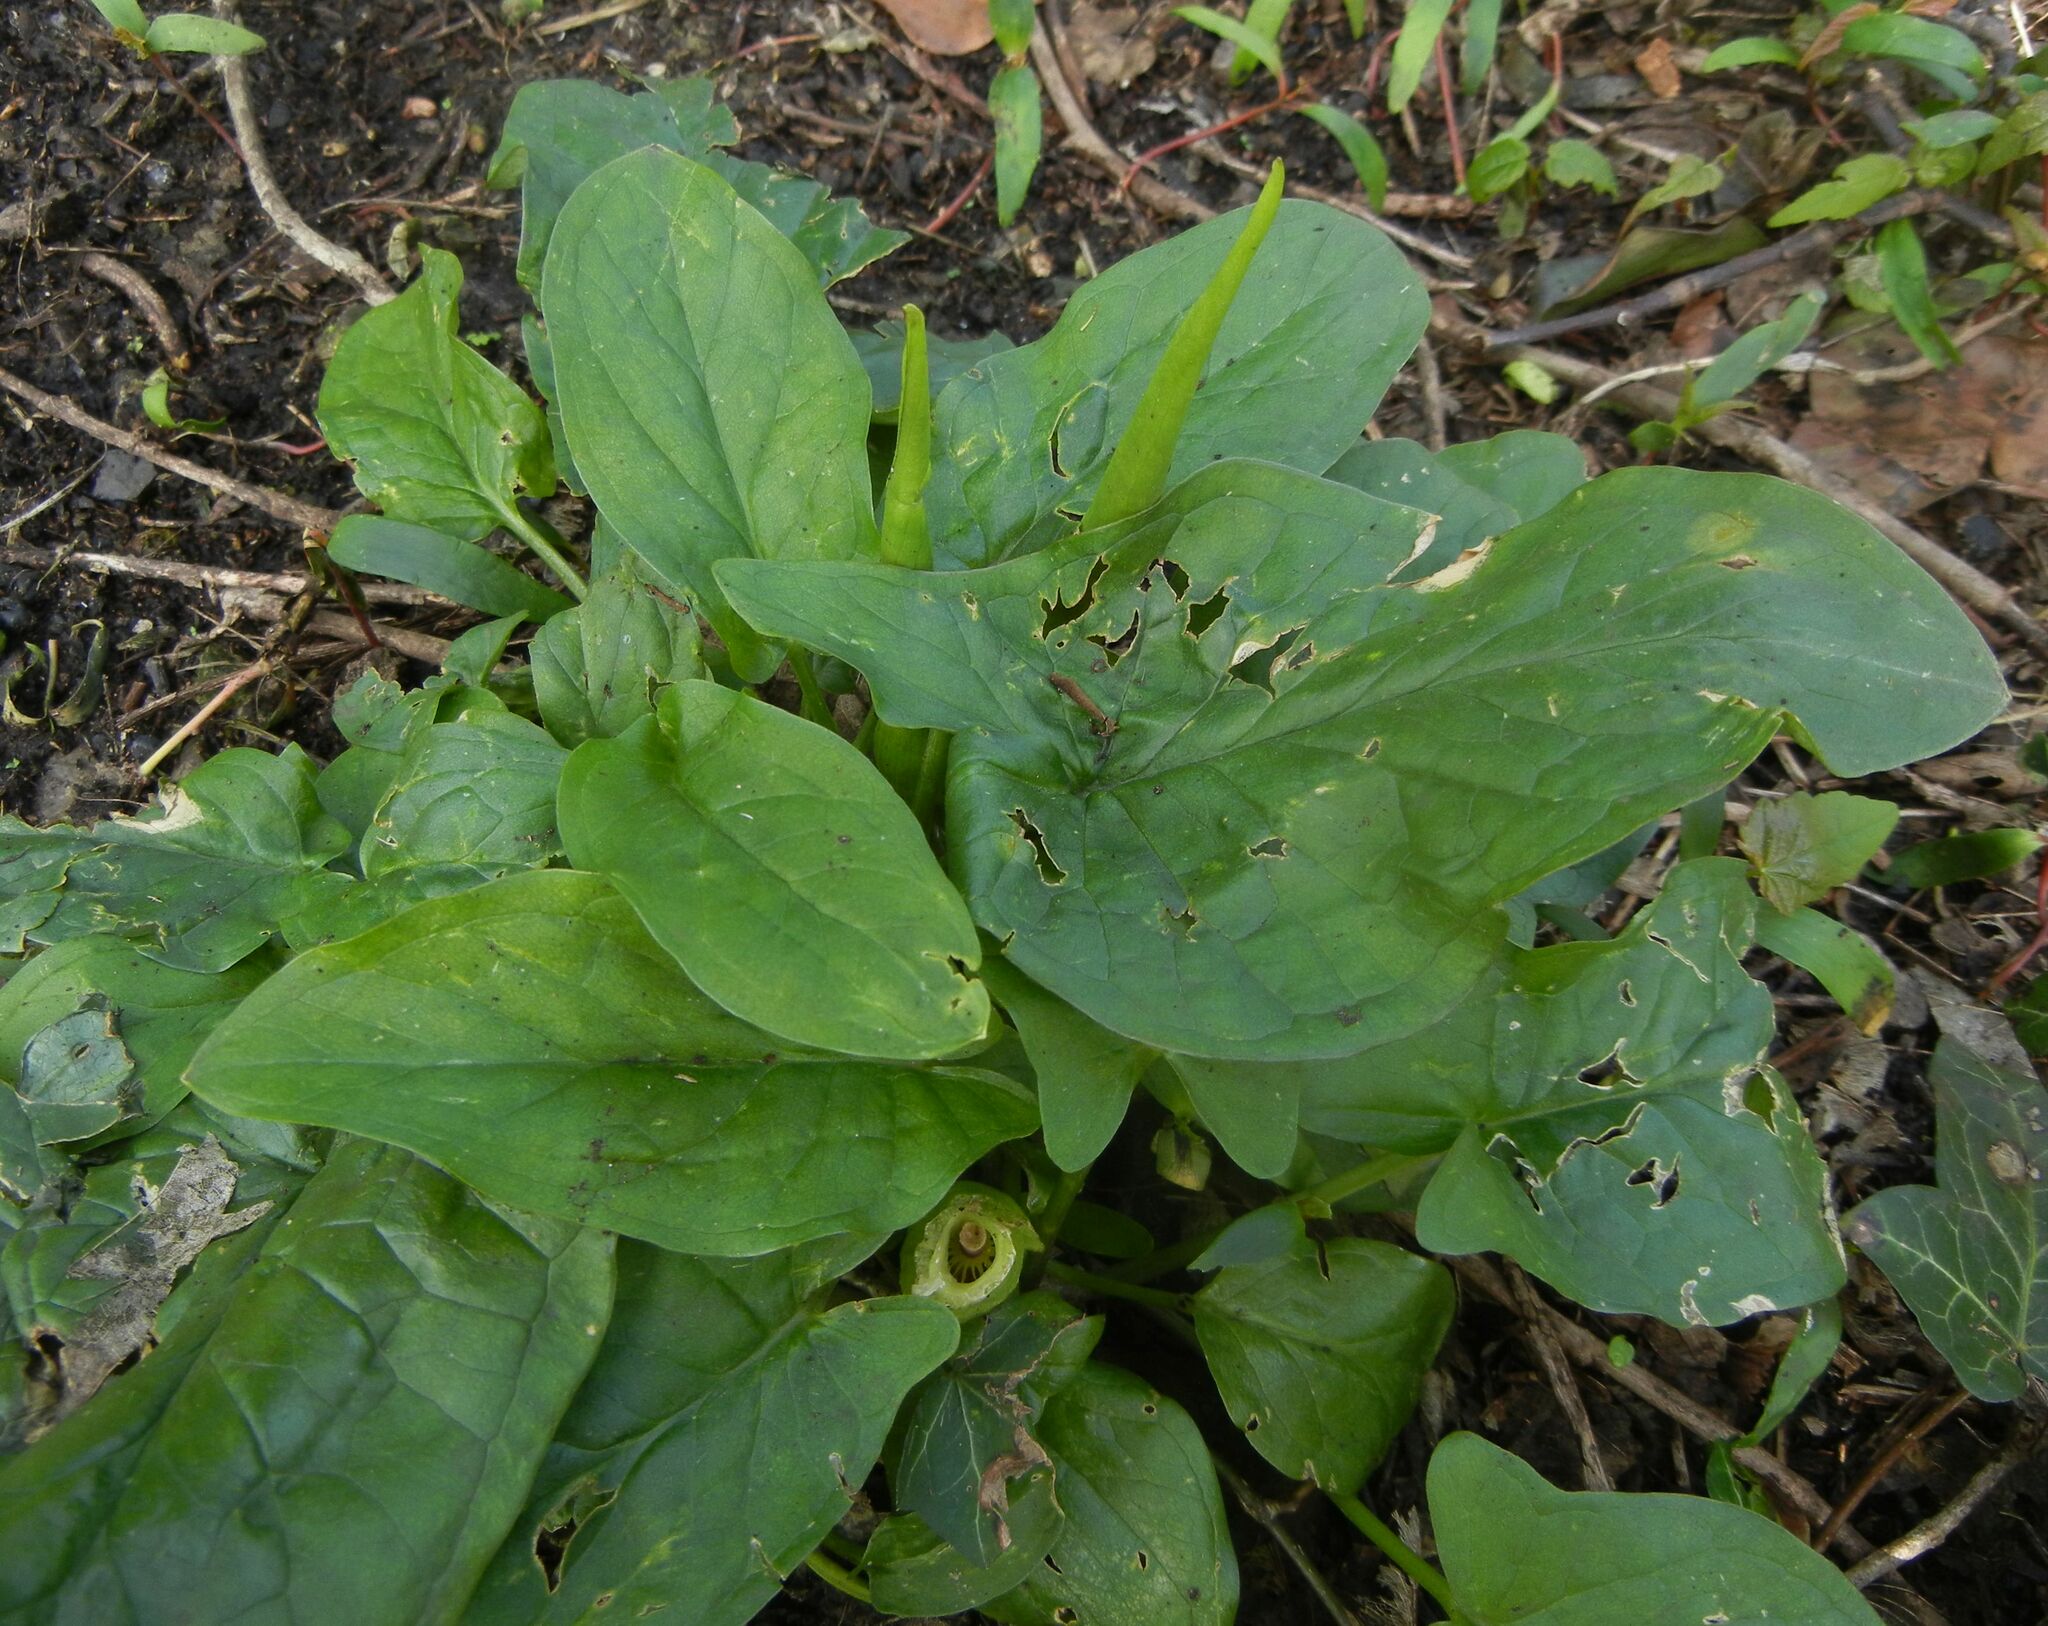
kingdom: Plantae
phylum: Tracheophyta
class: Liliopsida
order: Alismatales
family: Araceae
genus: Arum
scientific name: Arum maculatum
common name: Lords-and-ladies
